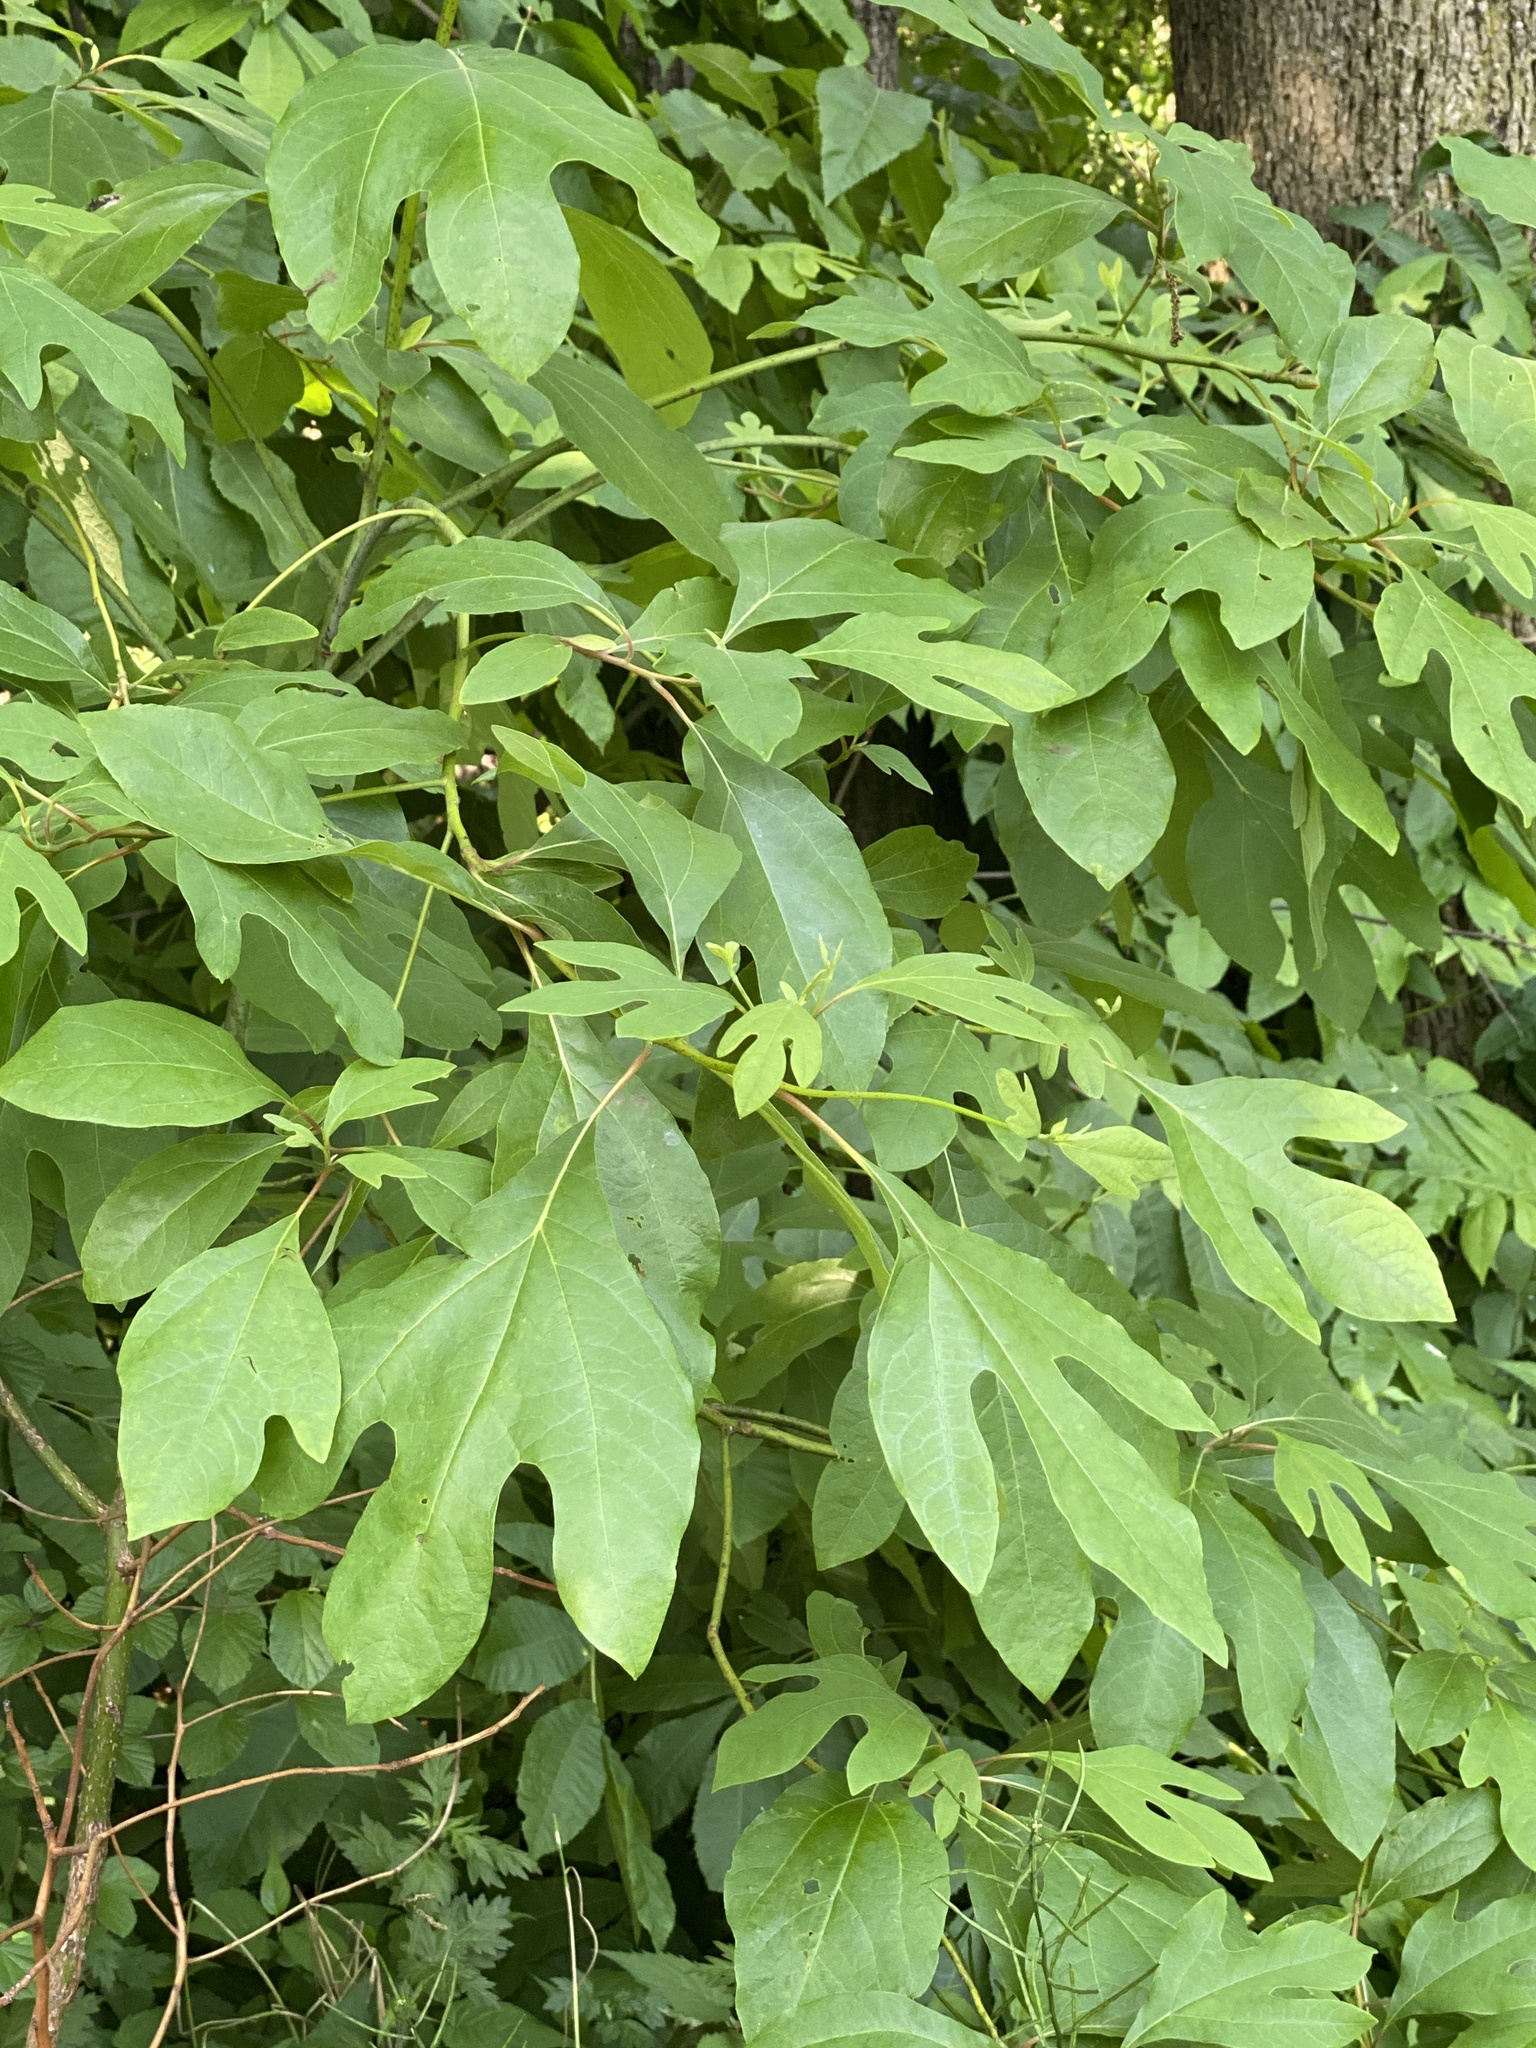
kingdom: Plantae
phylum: Tracheophyta
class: Magnoliopsida
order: Laurales
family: Lauraceae
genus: Sassafras
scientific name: Sassafras albidum
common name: Sassafras
